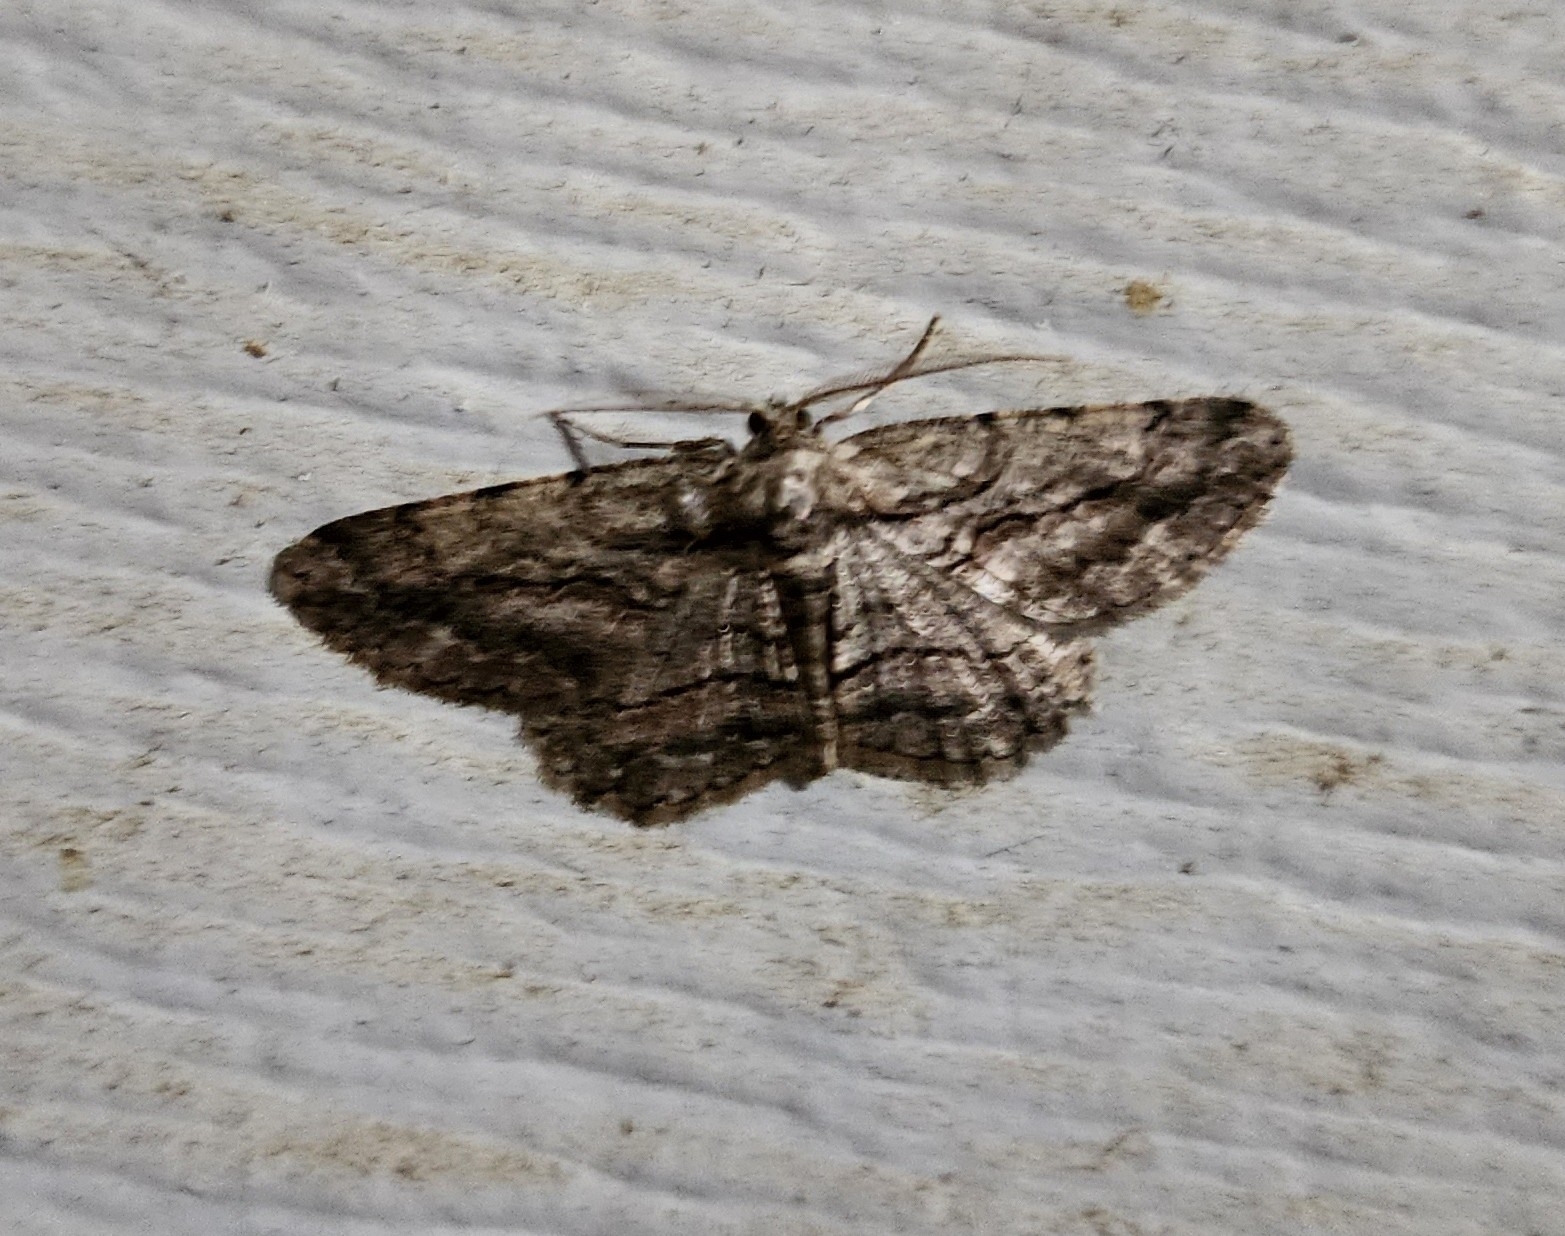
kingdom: Animalia
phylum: Arthropoda
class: Insecta
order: Lepidoptera
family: Geometridae
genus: Anavitrinella
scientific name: Anavitrinella pampinaria
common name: Common gray
